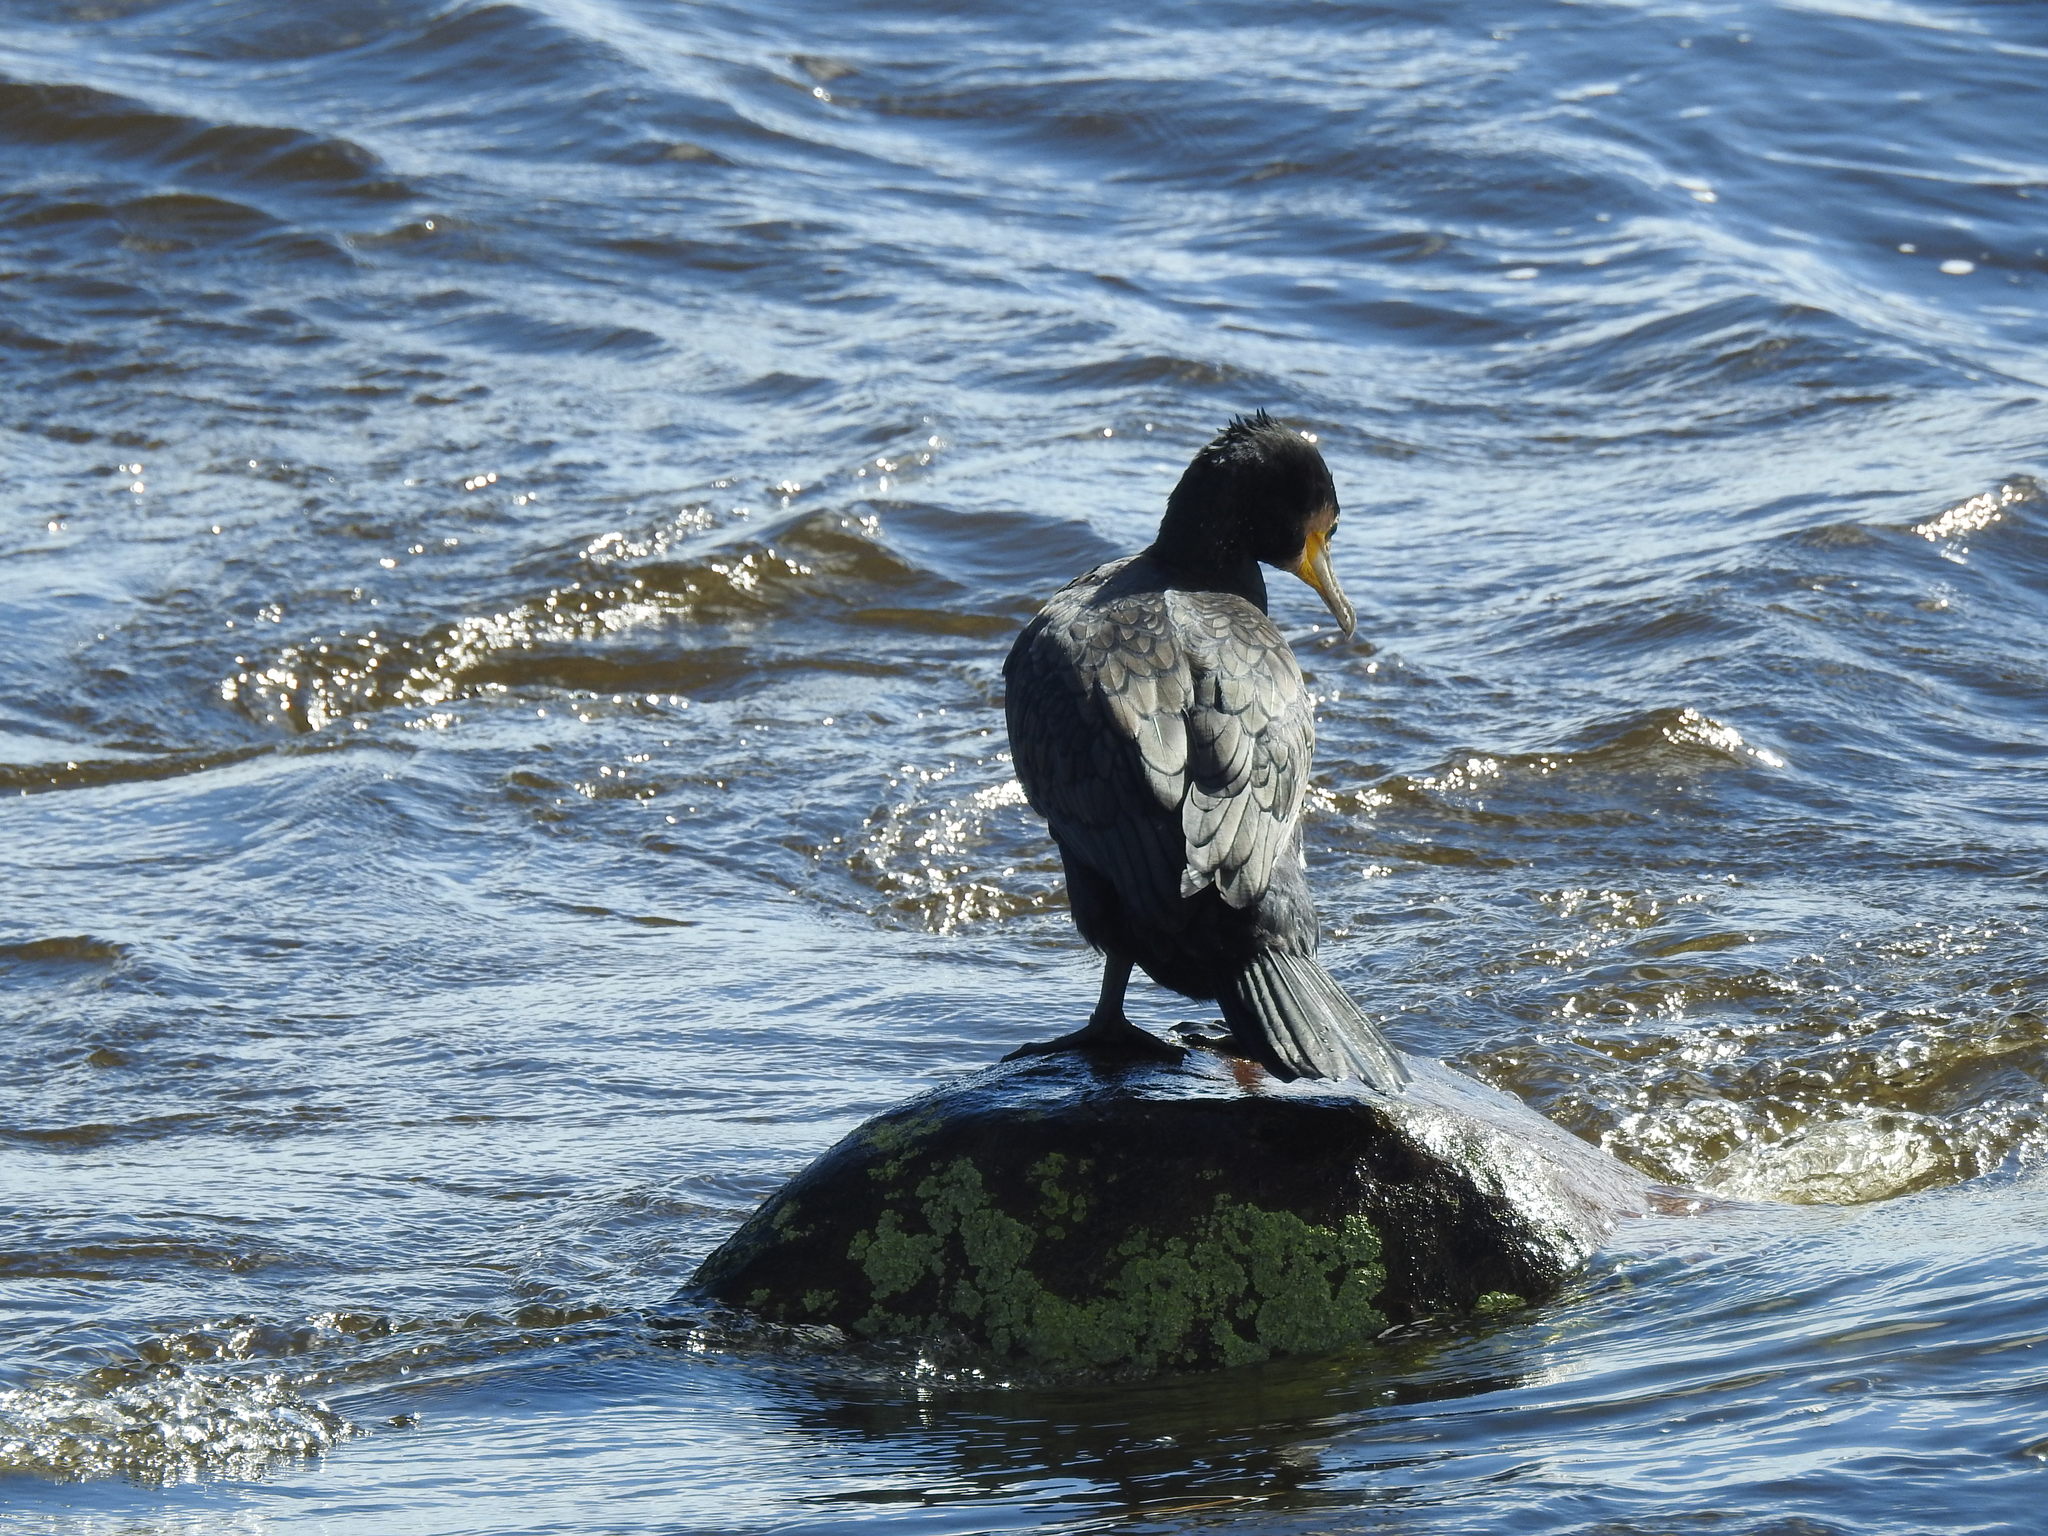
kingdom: Animalia
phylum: Chordata
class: Aves
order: Suliformes
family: Phalacrocoracidae
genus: Phalacrocorax
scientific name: Phalacrocorax carbo
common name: Great cormorant
